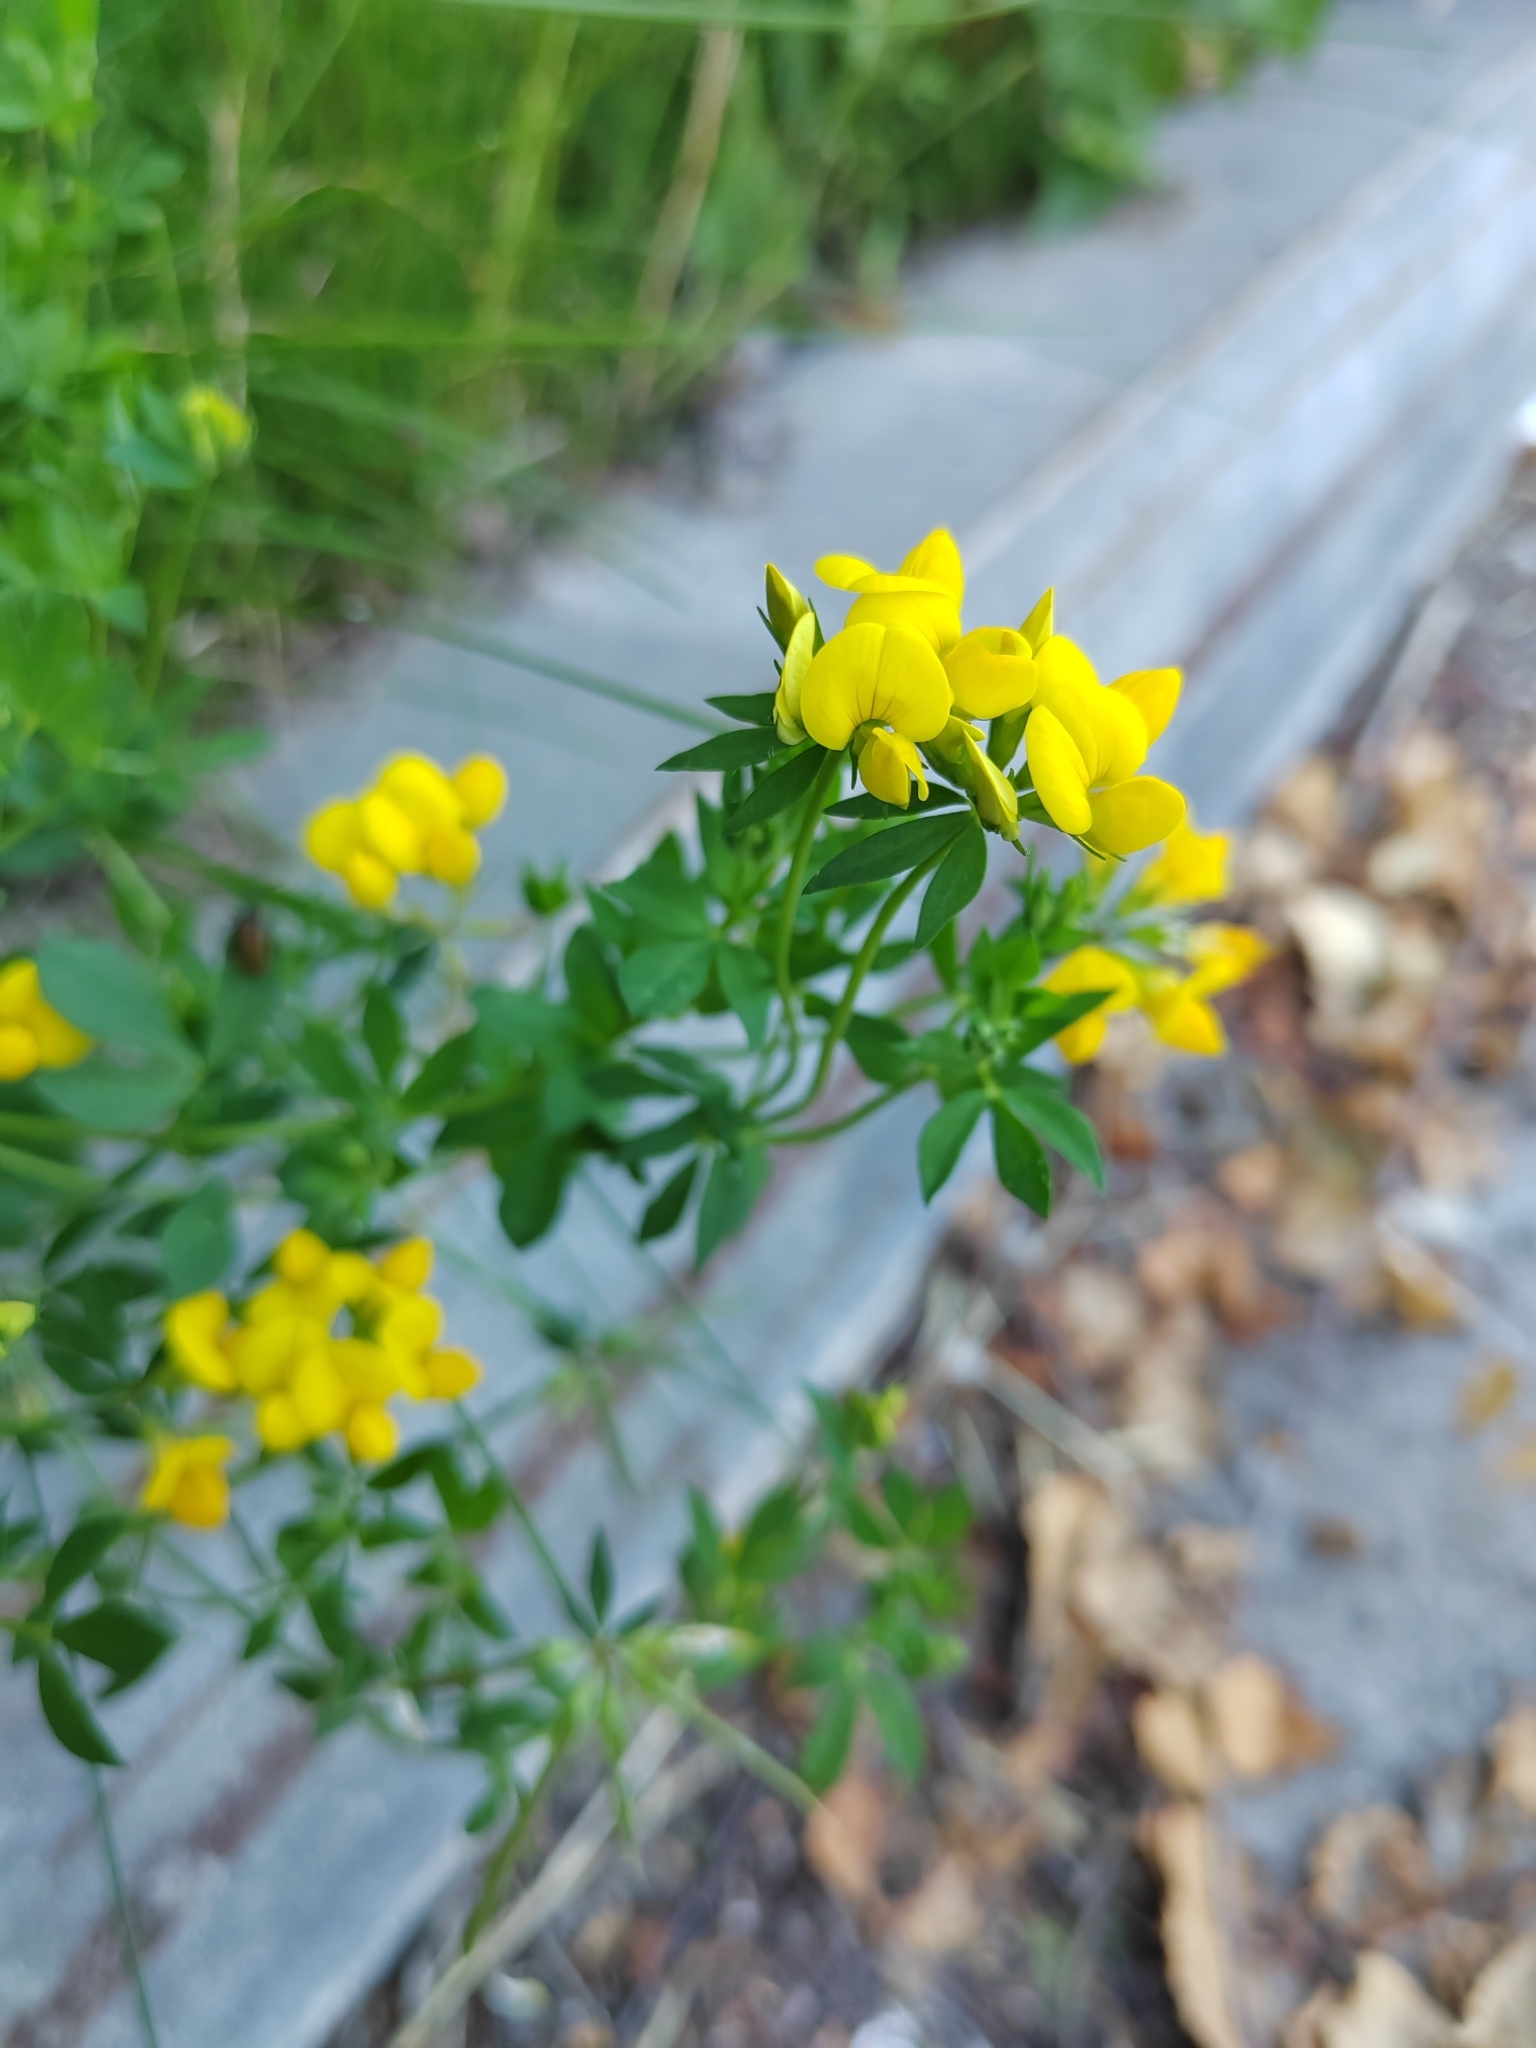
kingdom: Plantae
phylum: Tracheophyta
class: Magnoliopsida
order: Fabales
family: Fabaceae
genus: Lotus
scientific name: Lotus corniculatus
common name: Common bird's-foot-trefoil
